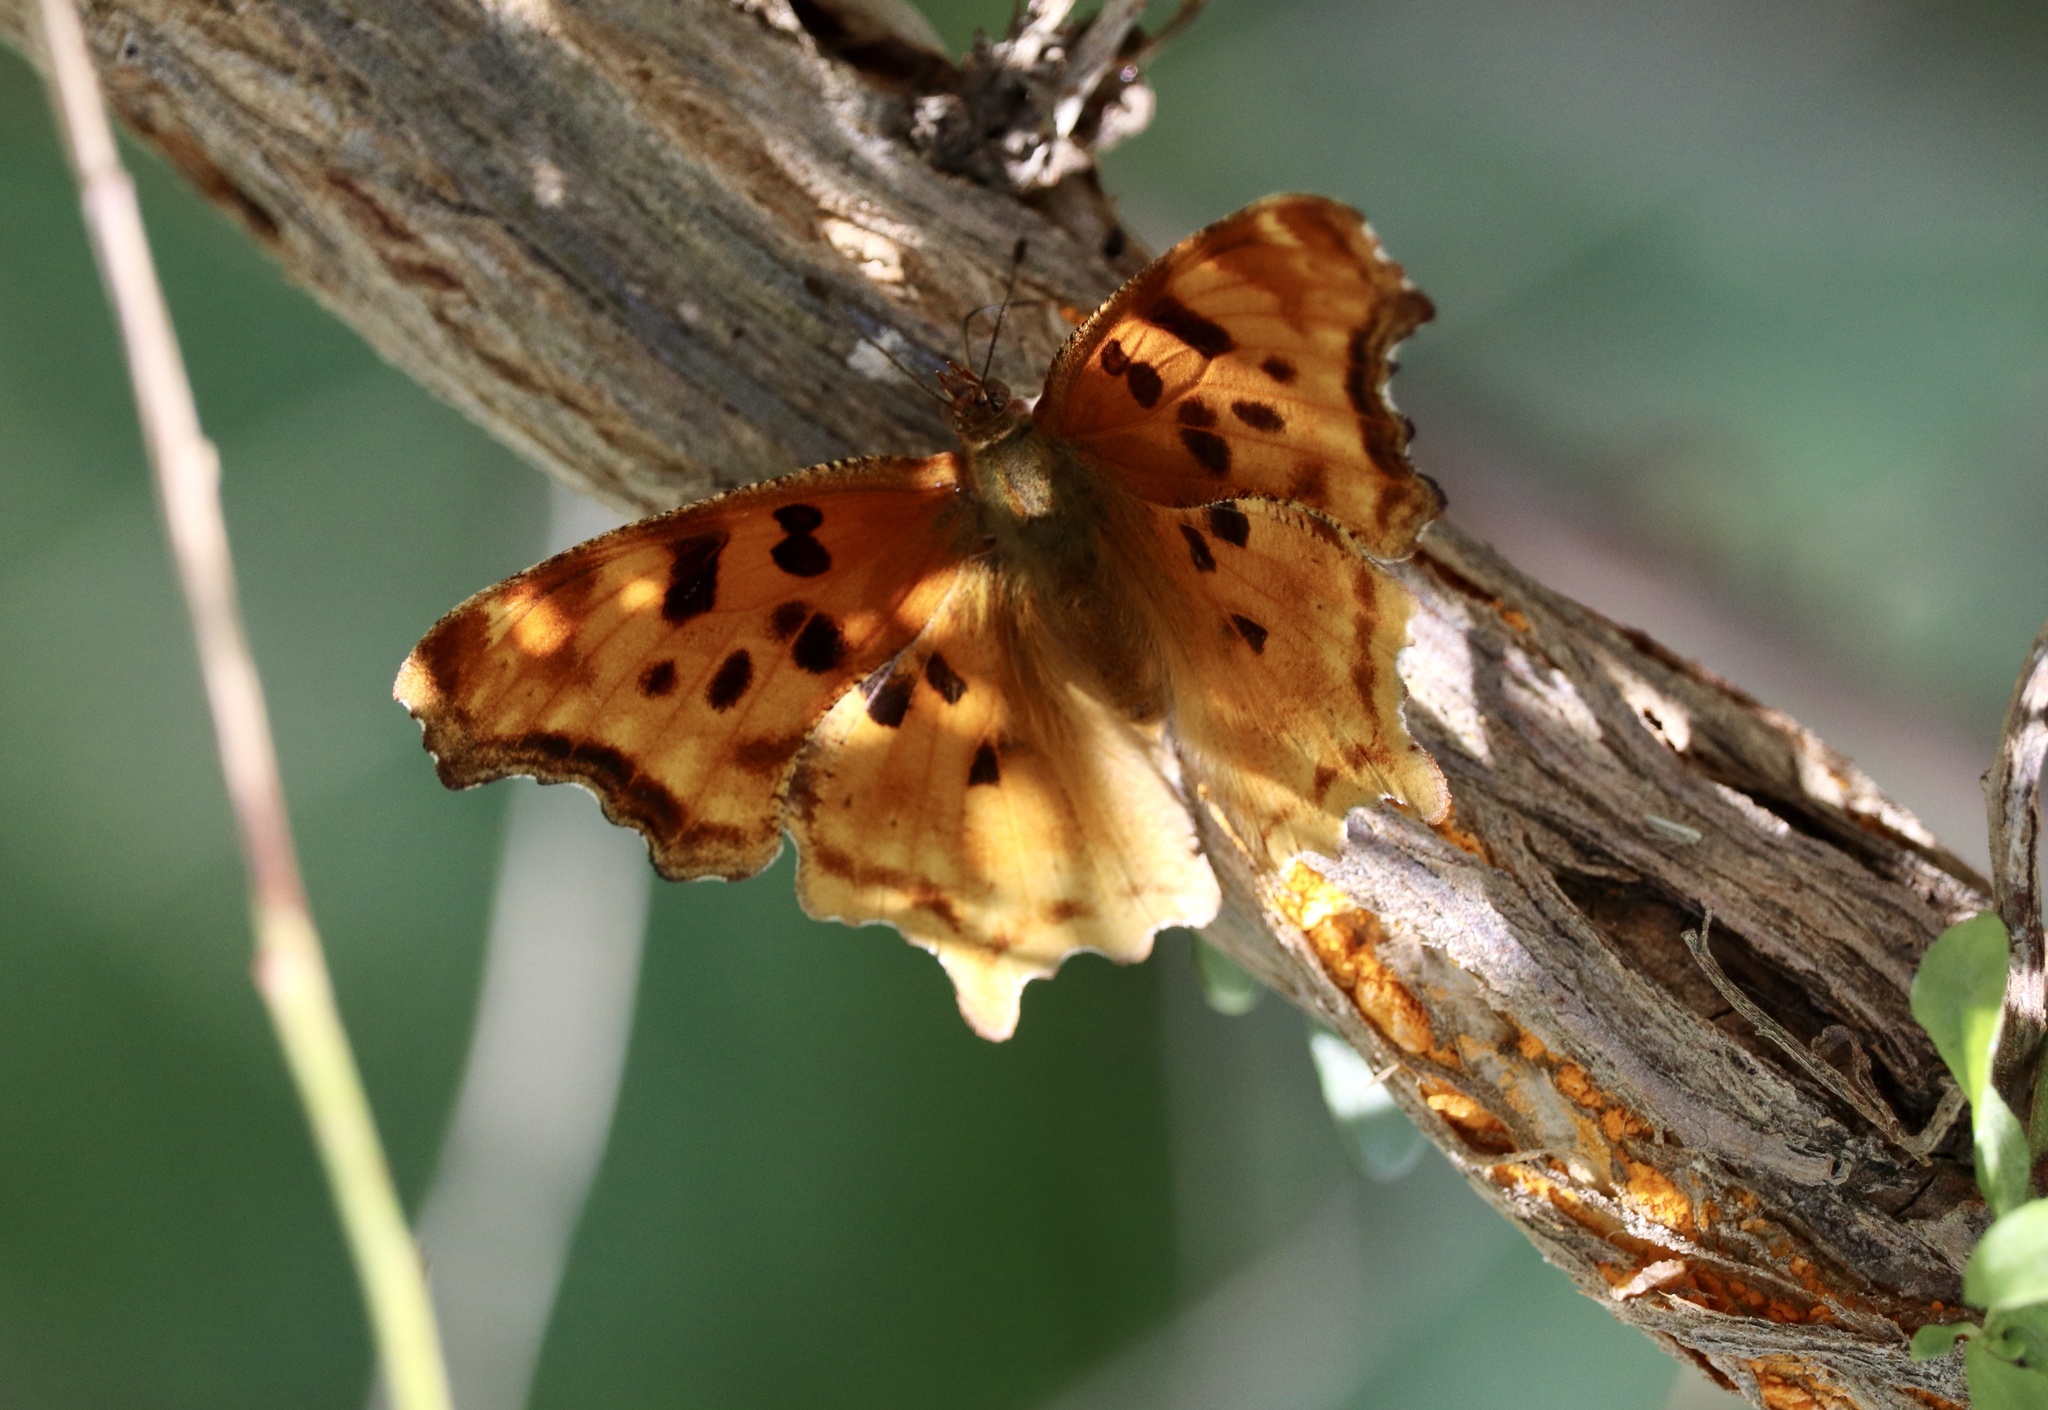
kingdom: Animalia
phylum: Arthropoda
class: Insecta
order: Lepidoptera
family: Nymphalidae
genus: Polygonia
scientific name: Polygonia satyrus
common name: Satyr angle wing
